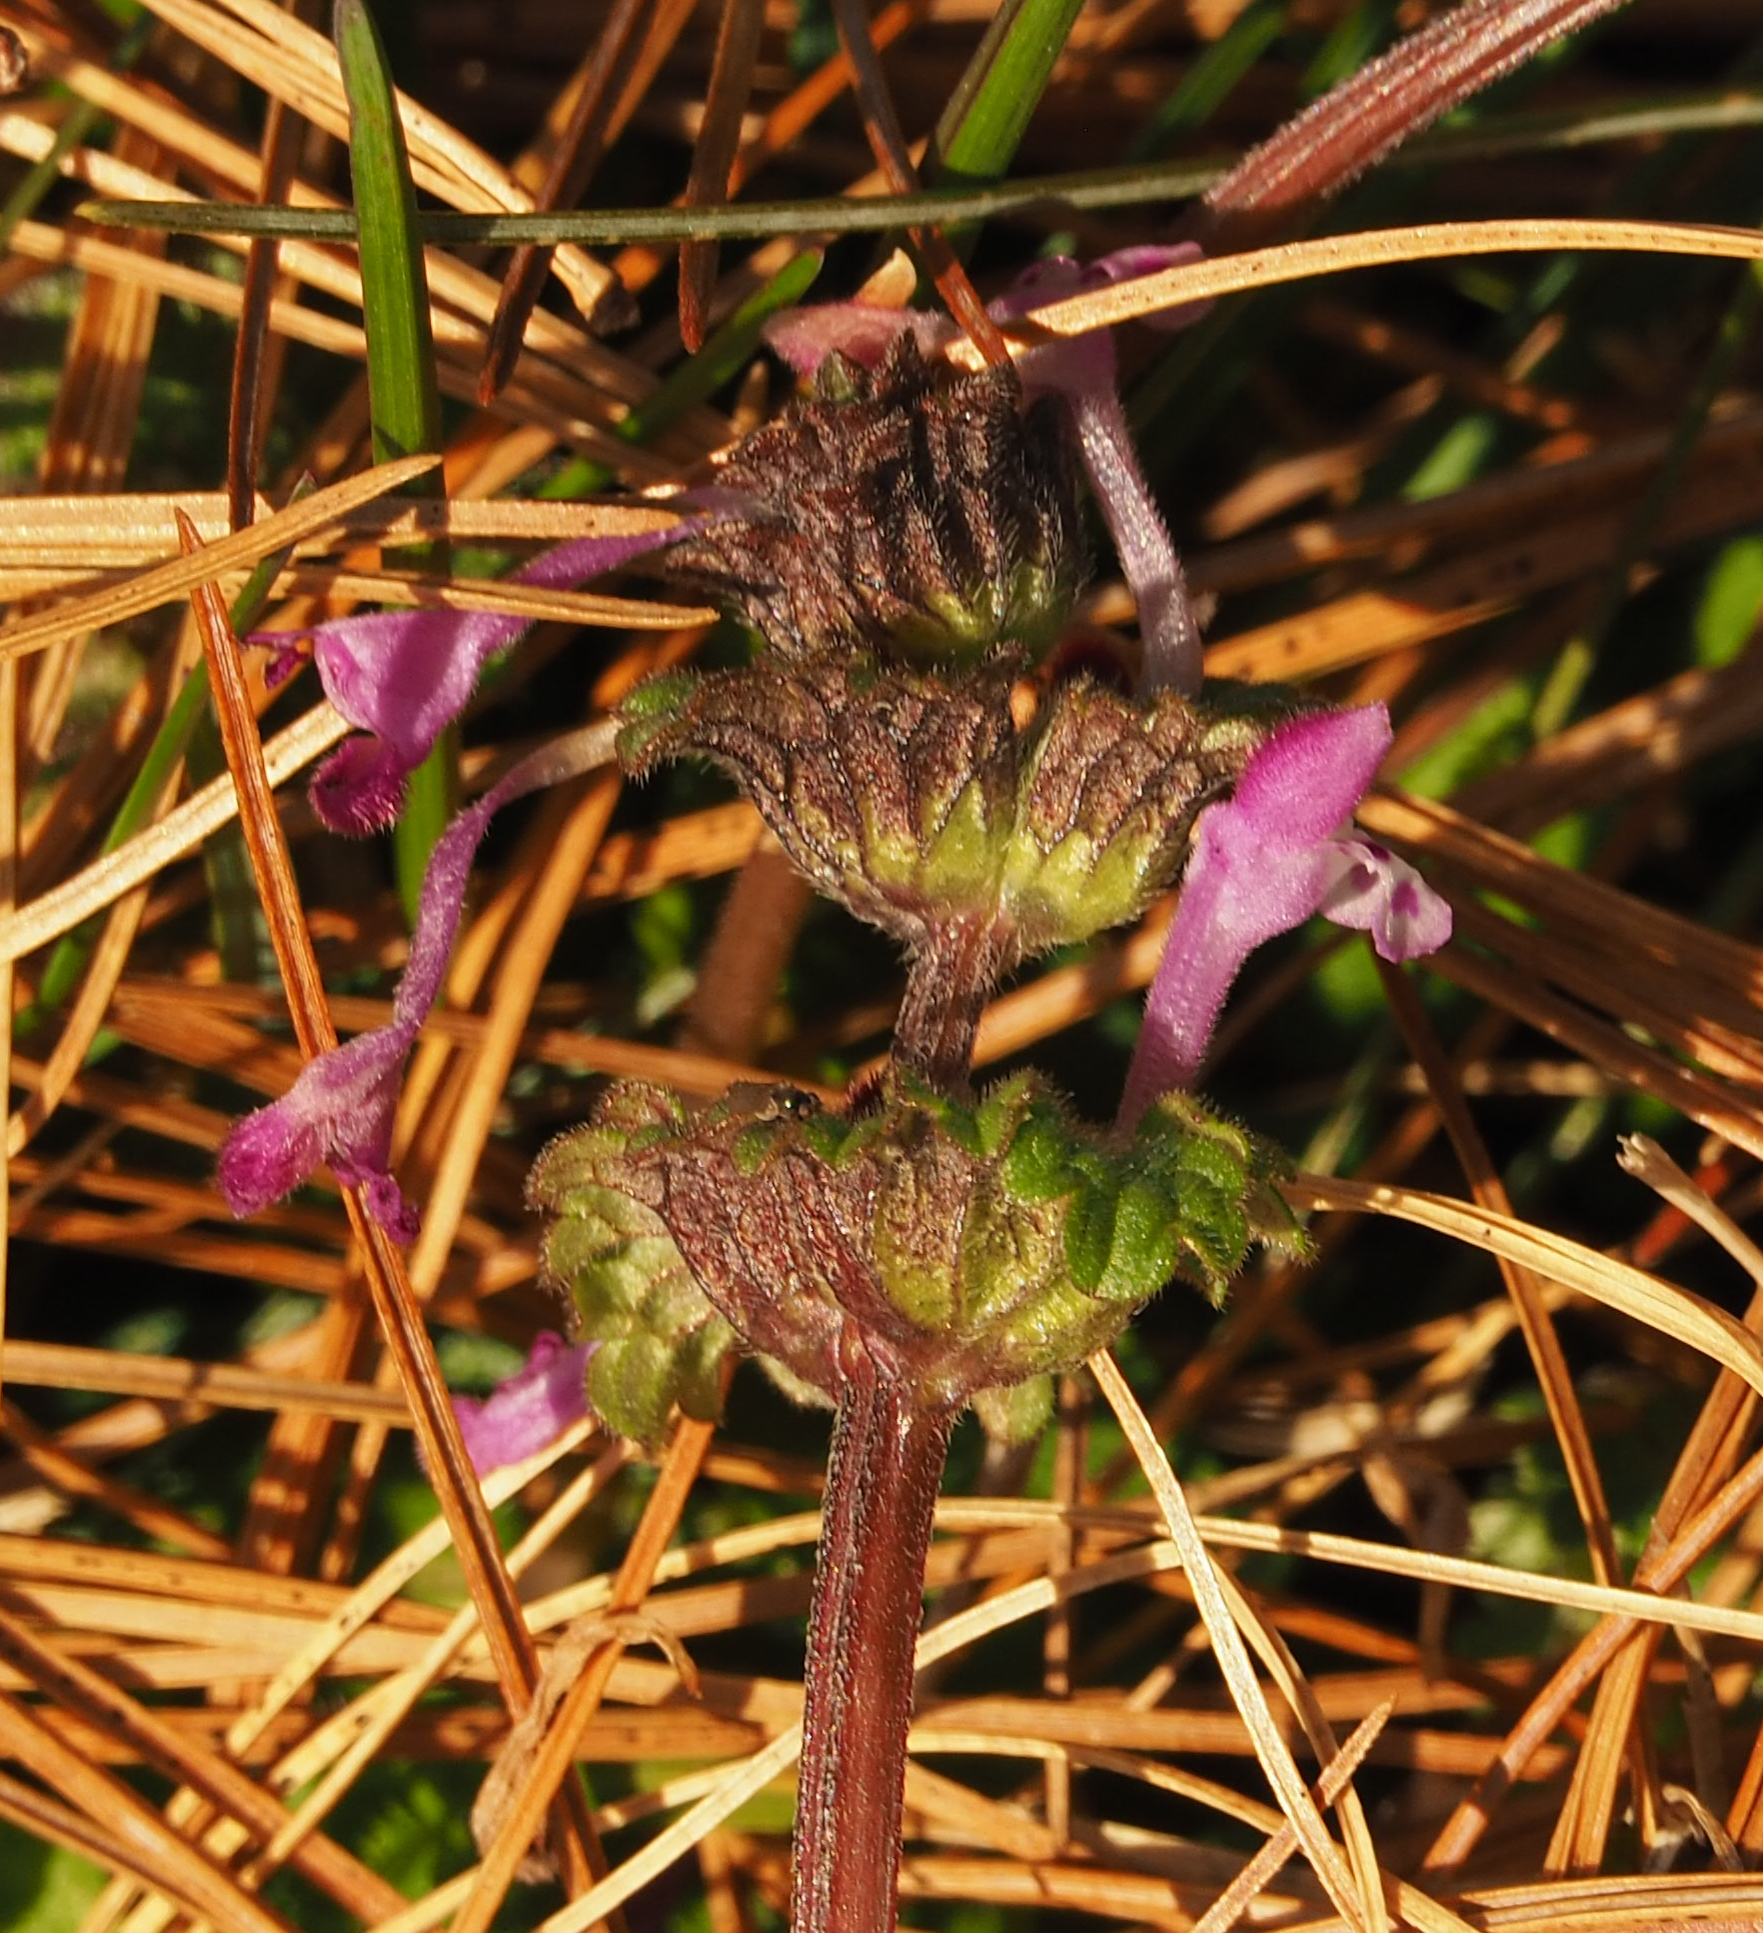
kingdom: Plantae
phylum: Tracheophyta
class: Magnoliopsida
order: Lamiales
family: Lamiaceae
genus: Lamium
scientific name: Lamium amplexicaule
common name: Henbit dead-nettle
